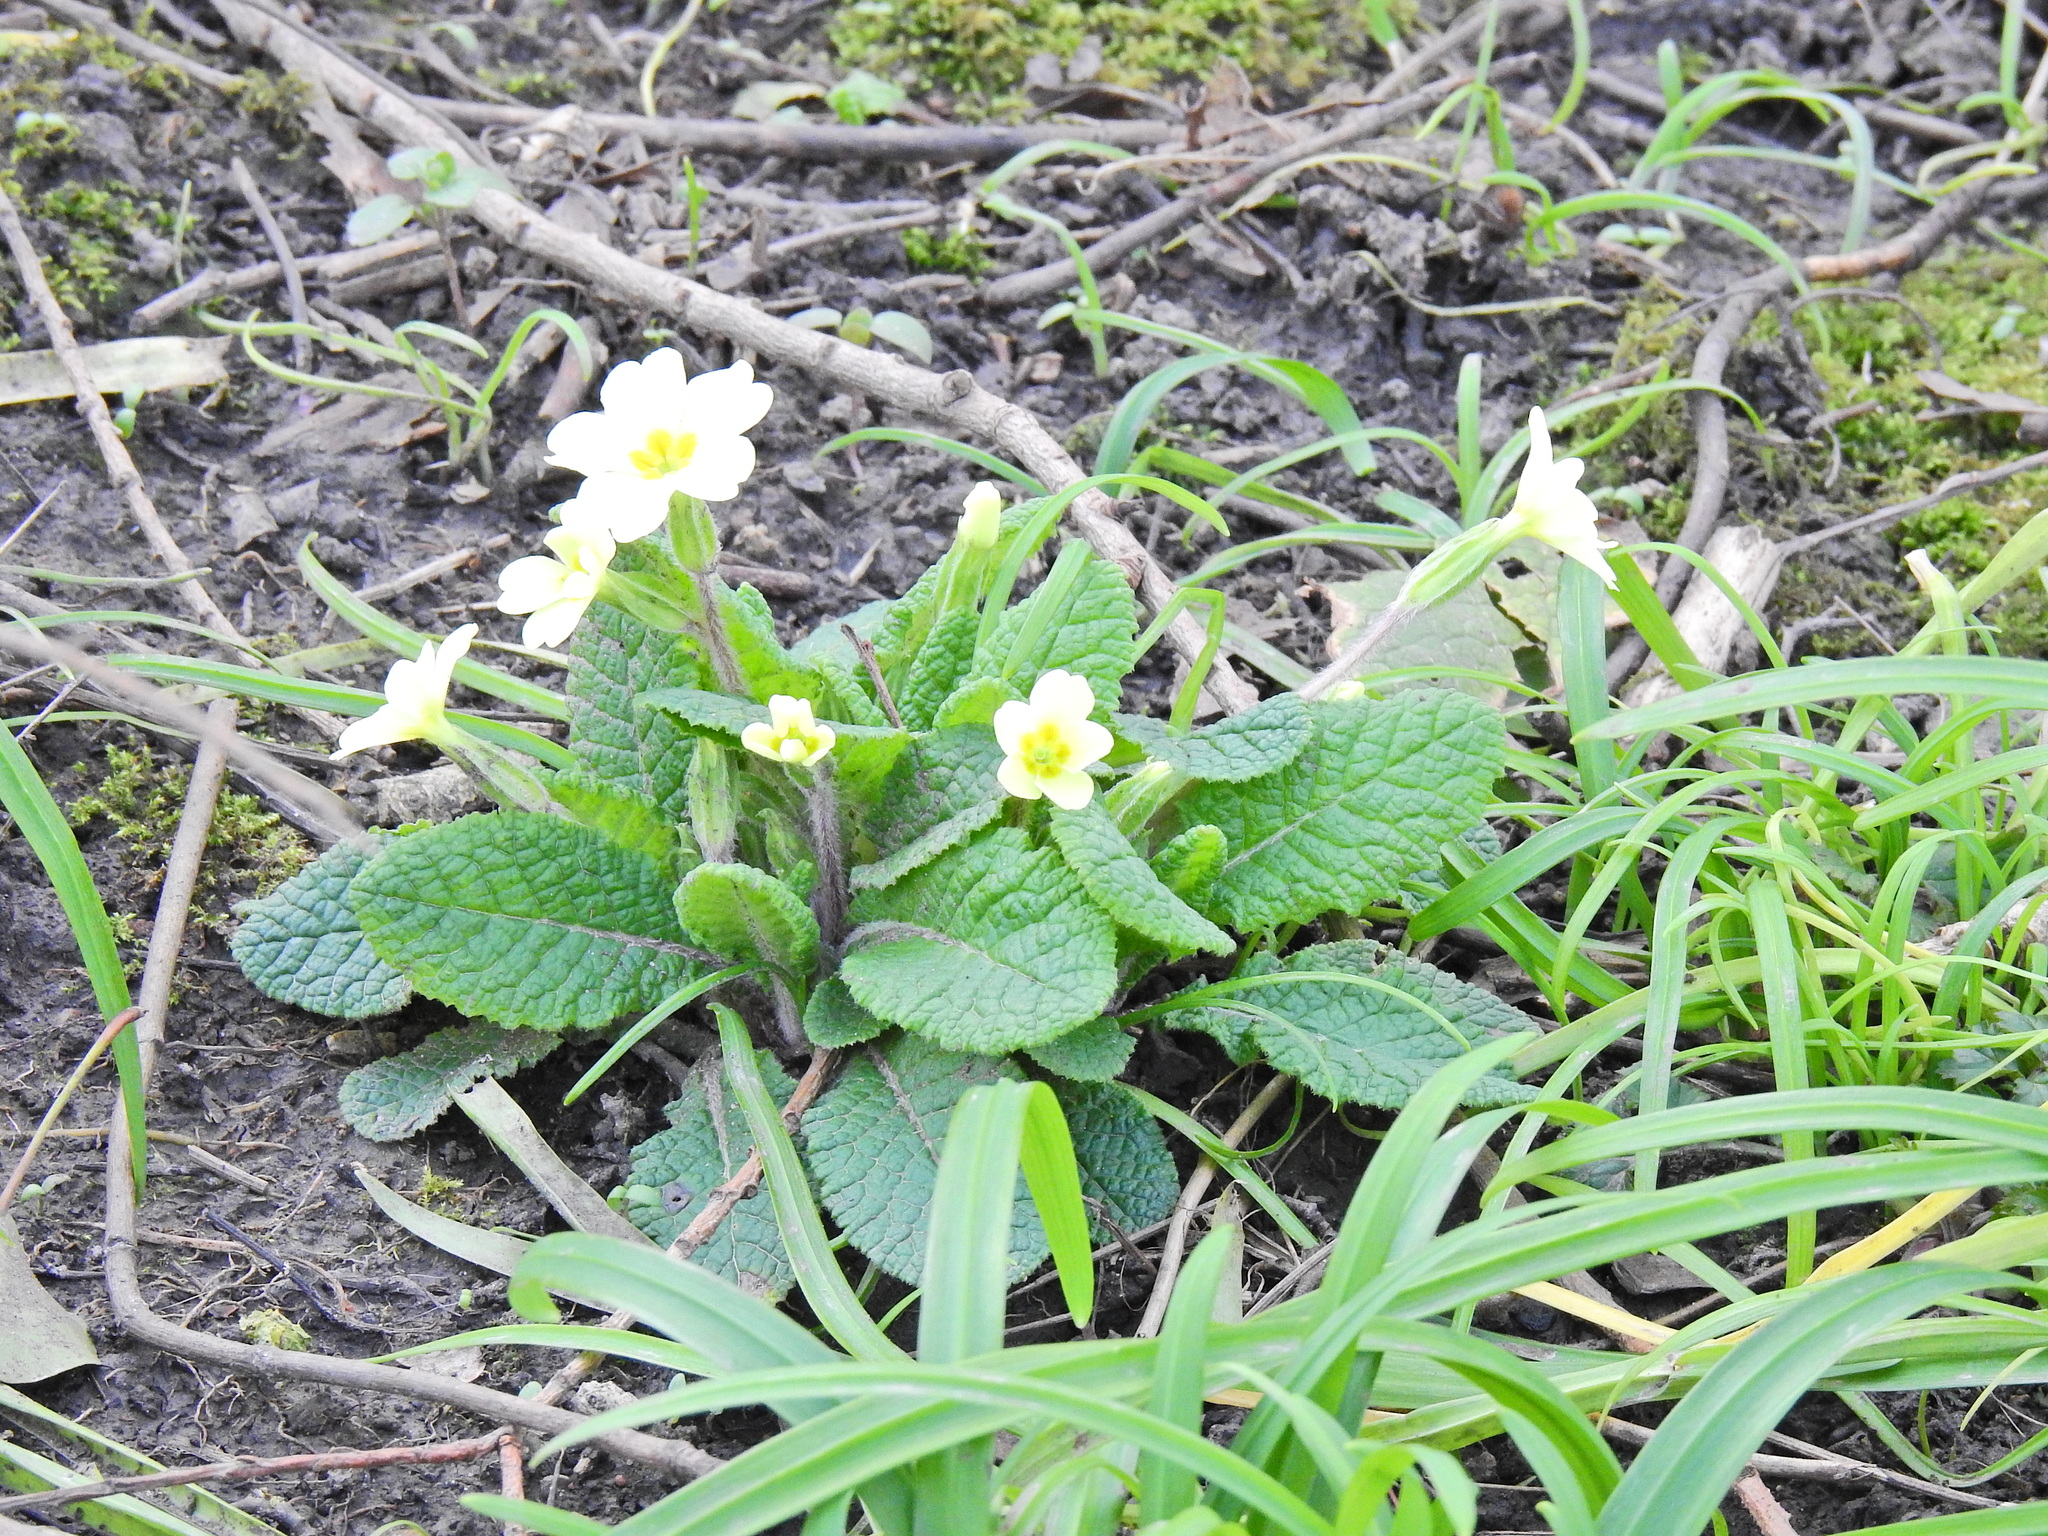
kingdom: Plantae
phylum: Tracheophyta
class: Magnoliopsida
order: Ericales
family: Primulaceae
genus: Primula
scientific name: Primula vulgaris
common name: Primrose
